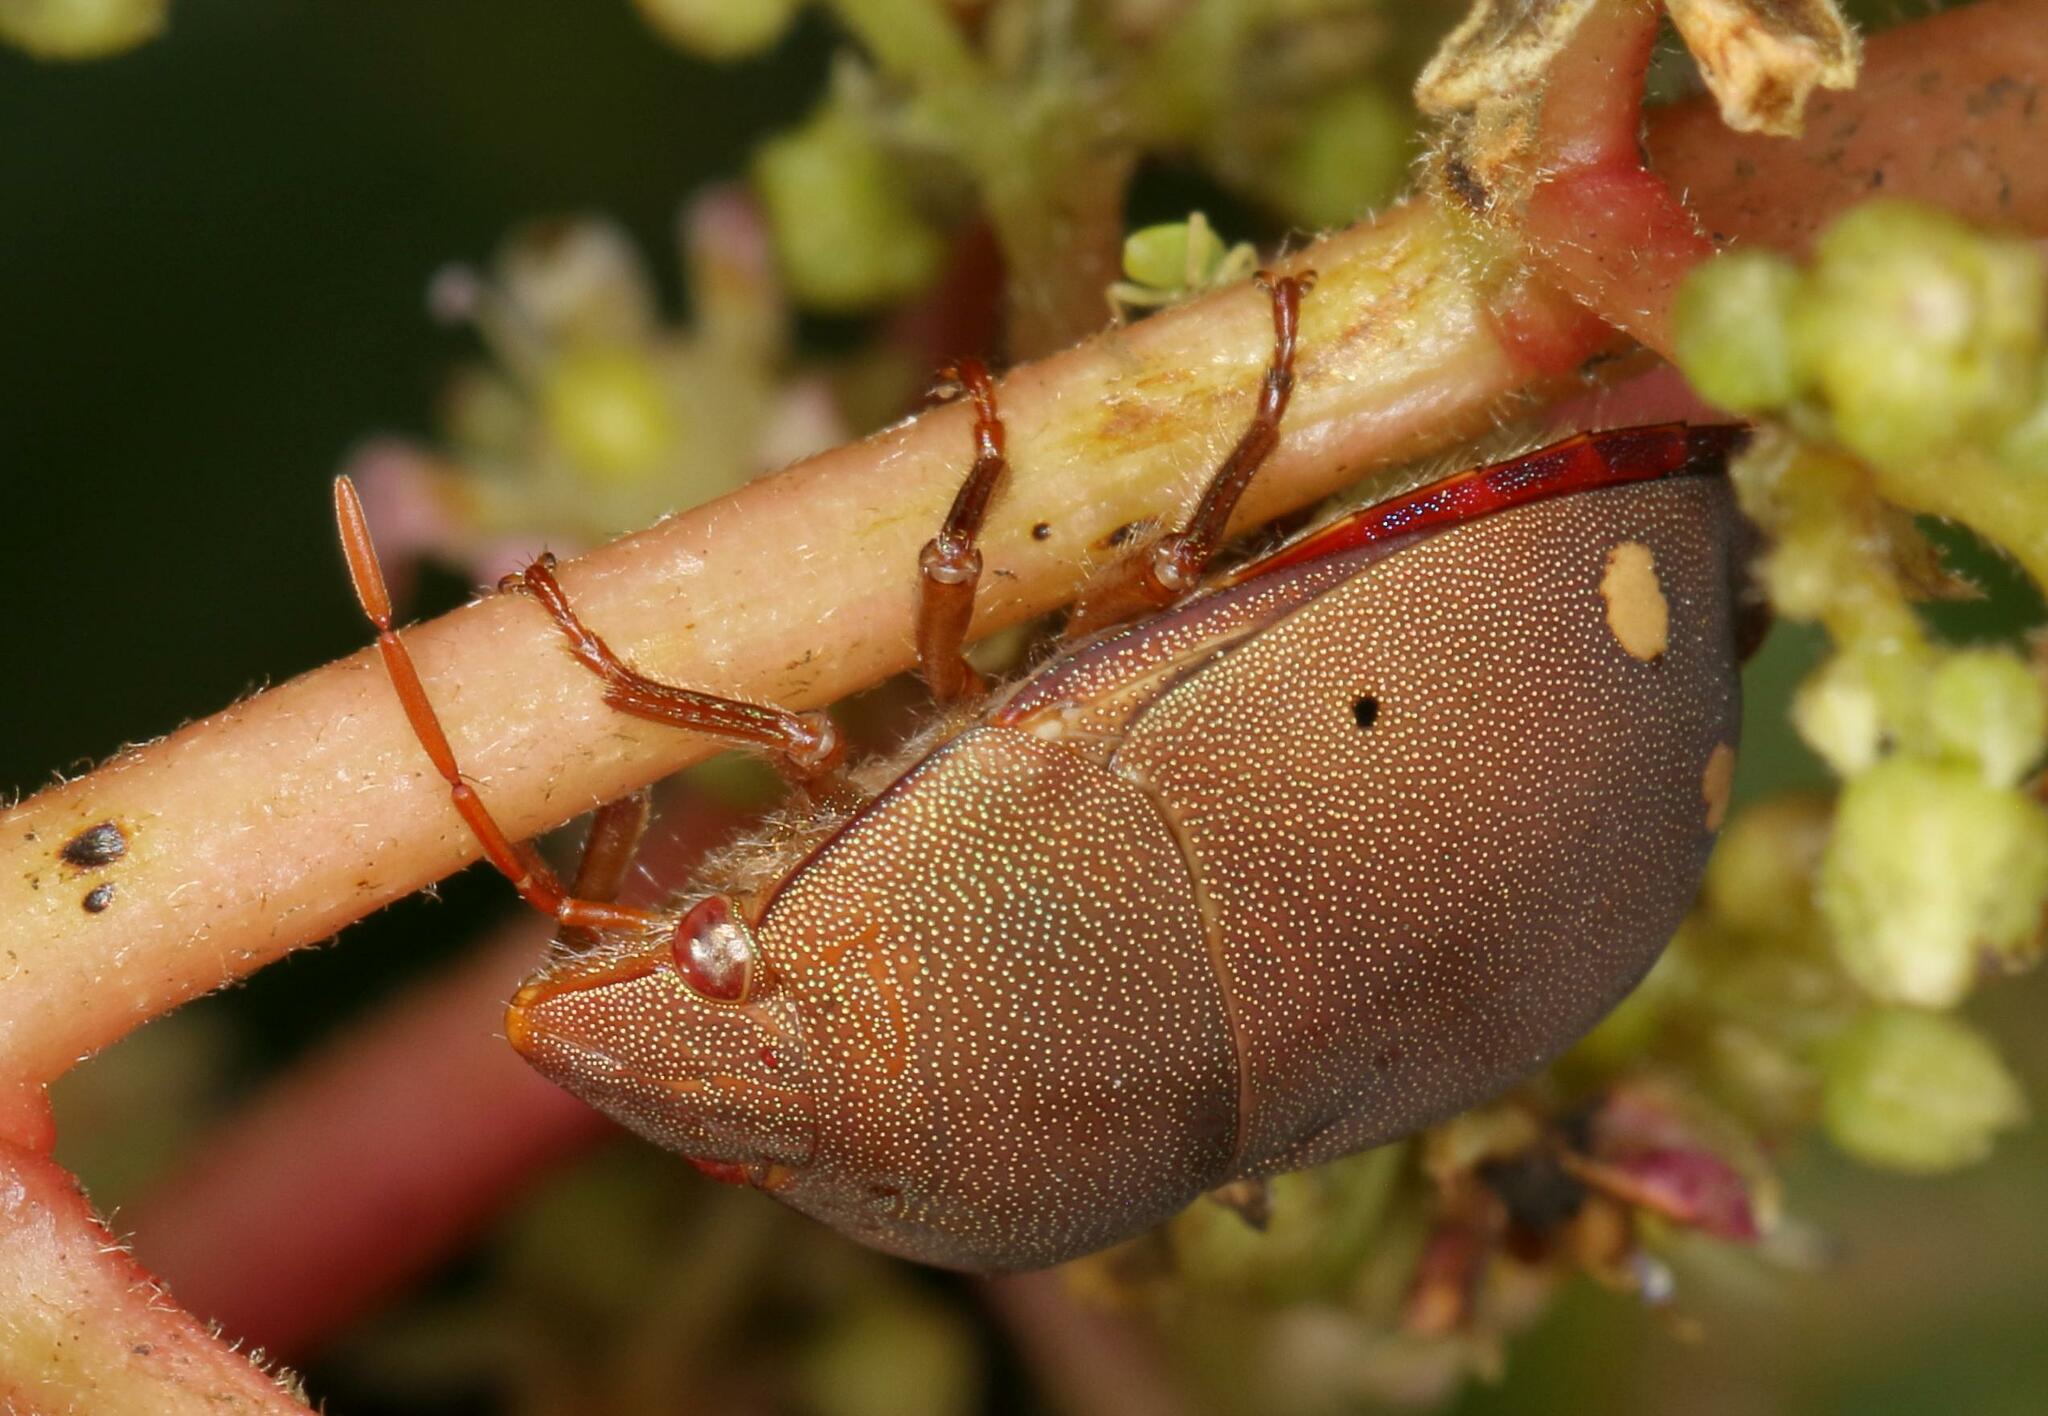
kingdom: Animalia
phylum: Arthropoda
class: Insecta
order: Hemiptera
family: Scutelleridae
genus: Solenosthedium
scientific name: Solenosthedium
